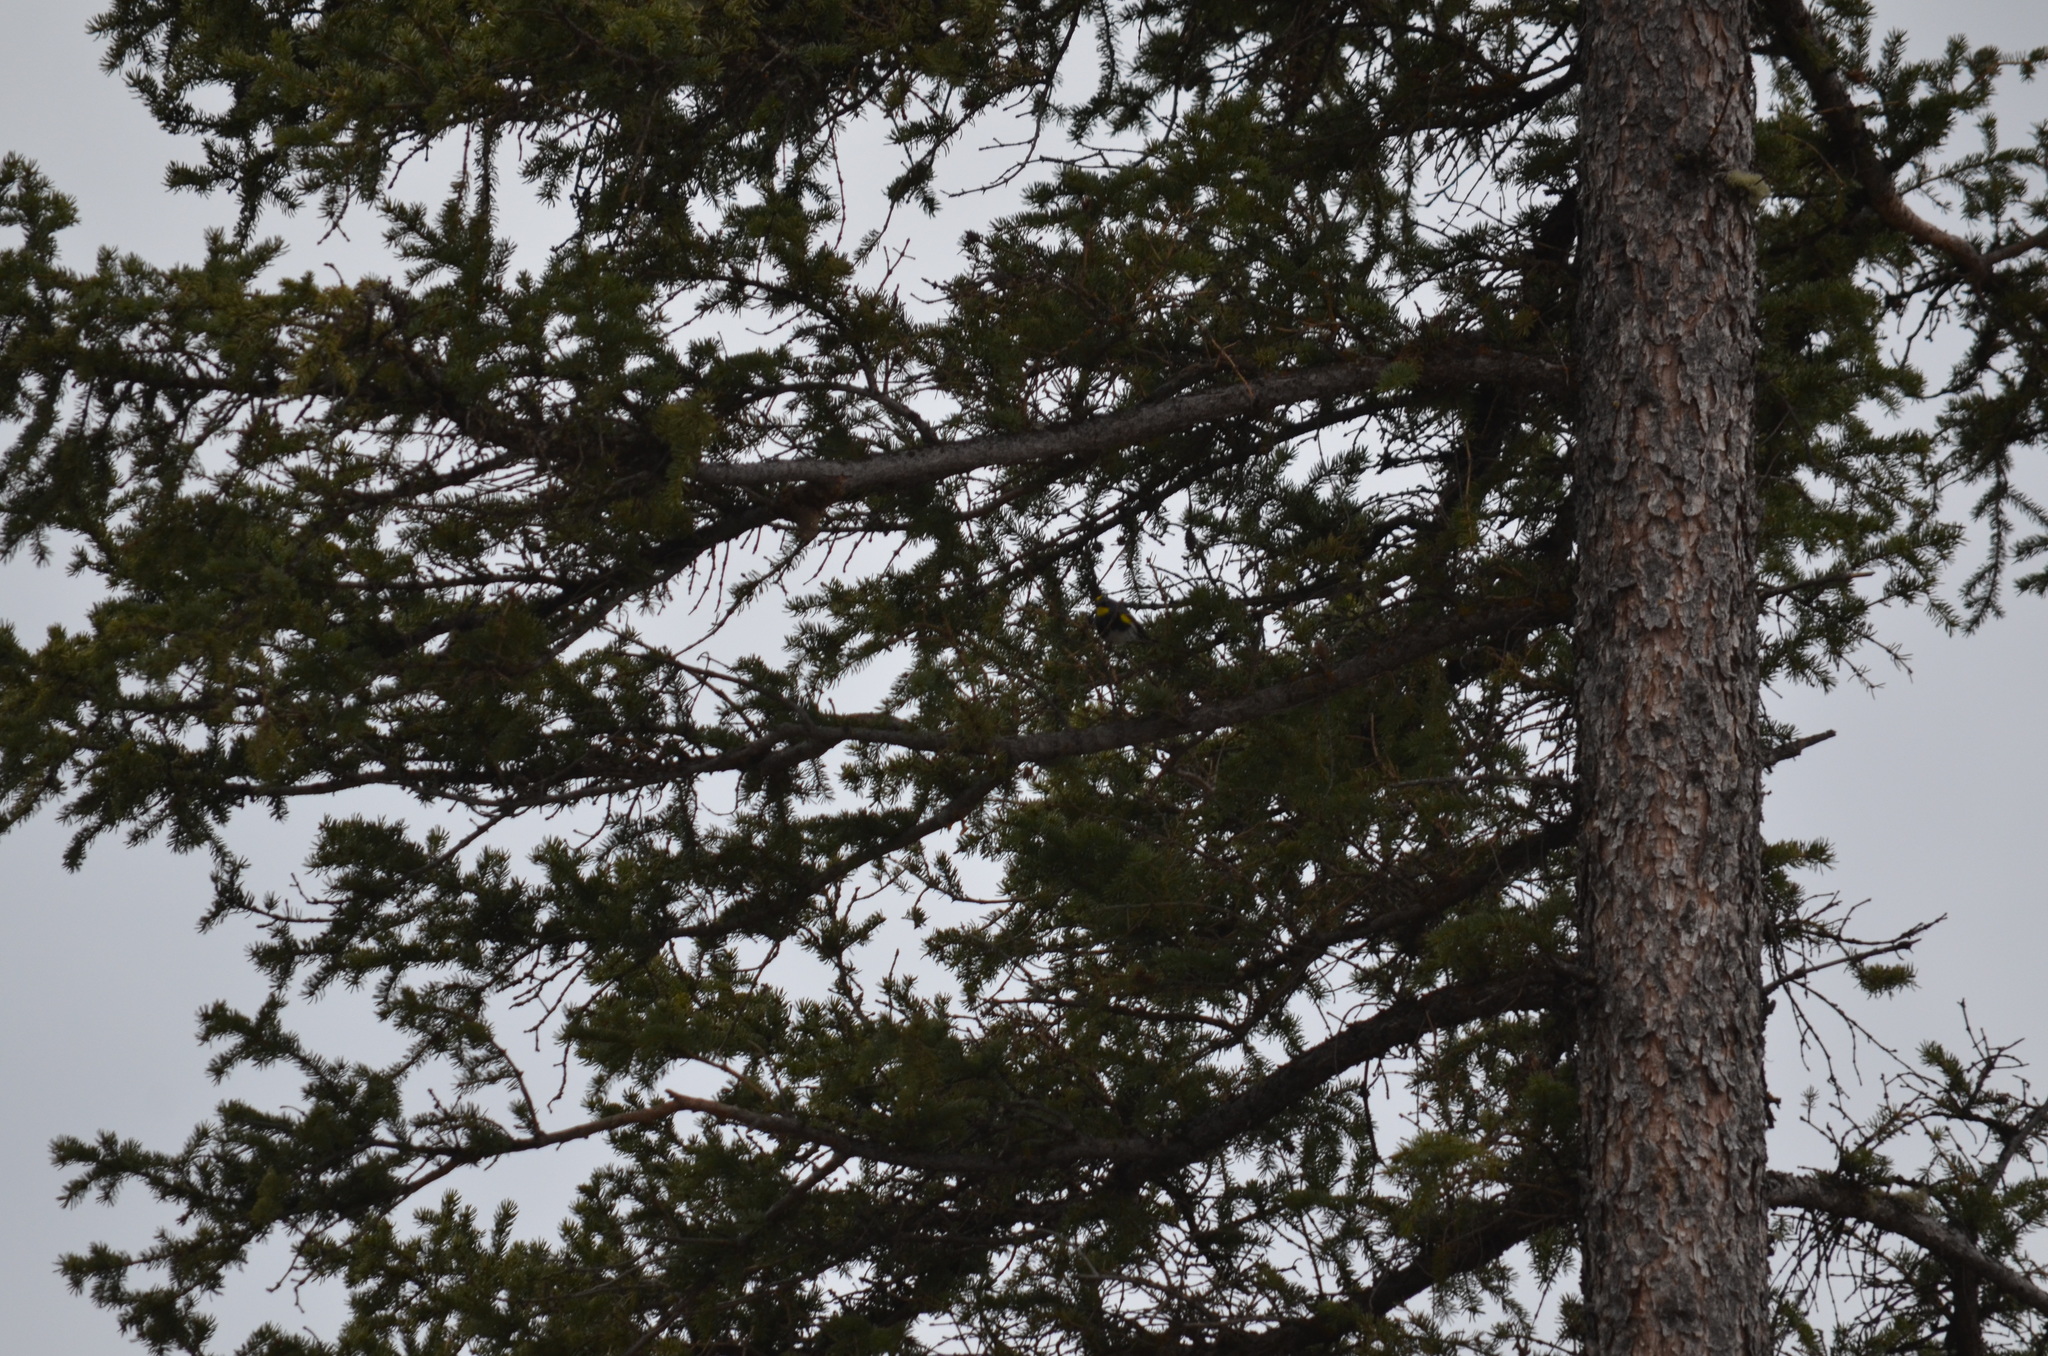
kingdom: Animalia
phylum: Chordata
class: Aves
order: Passeriformes
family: Parulidae
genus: Setophaga
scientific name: Setophaga auduboni
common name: Audubon's warbler
